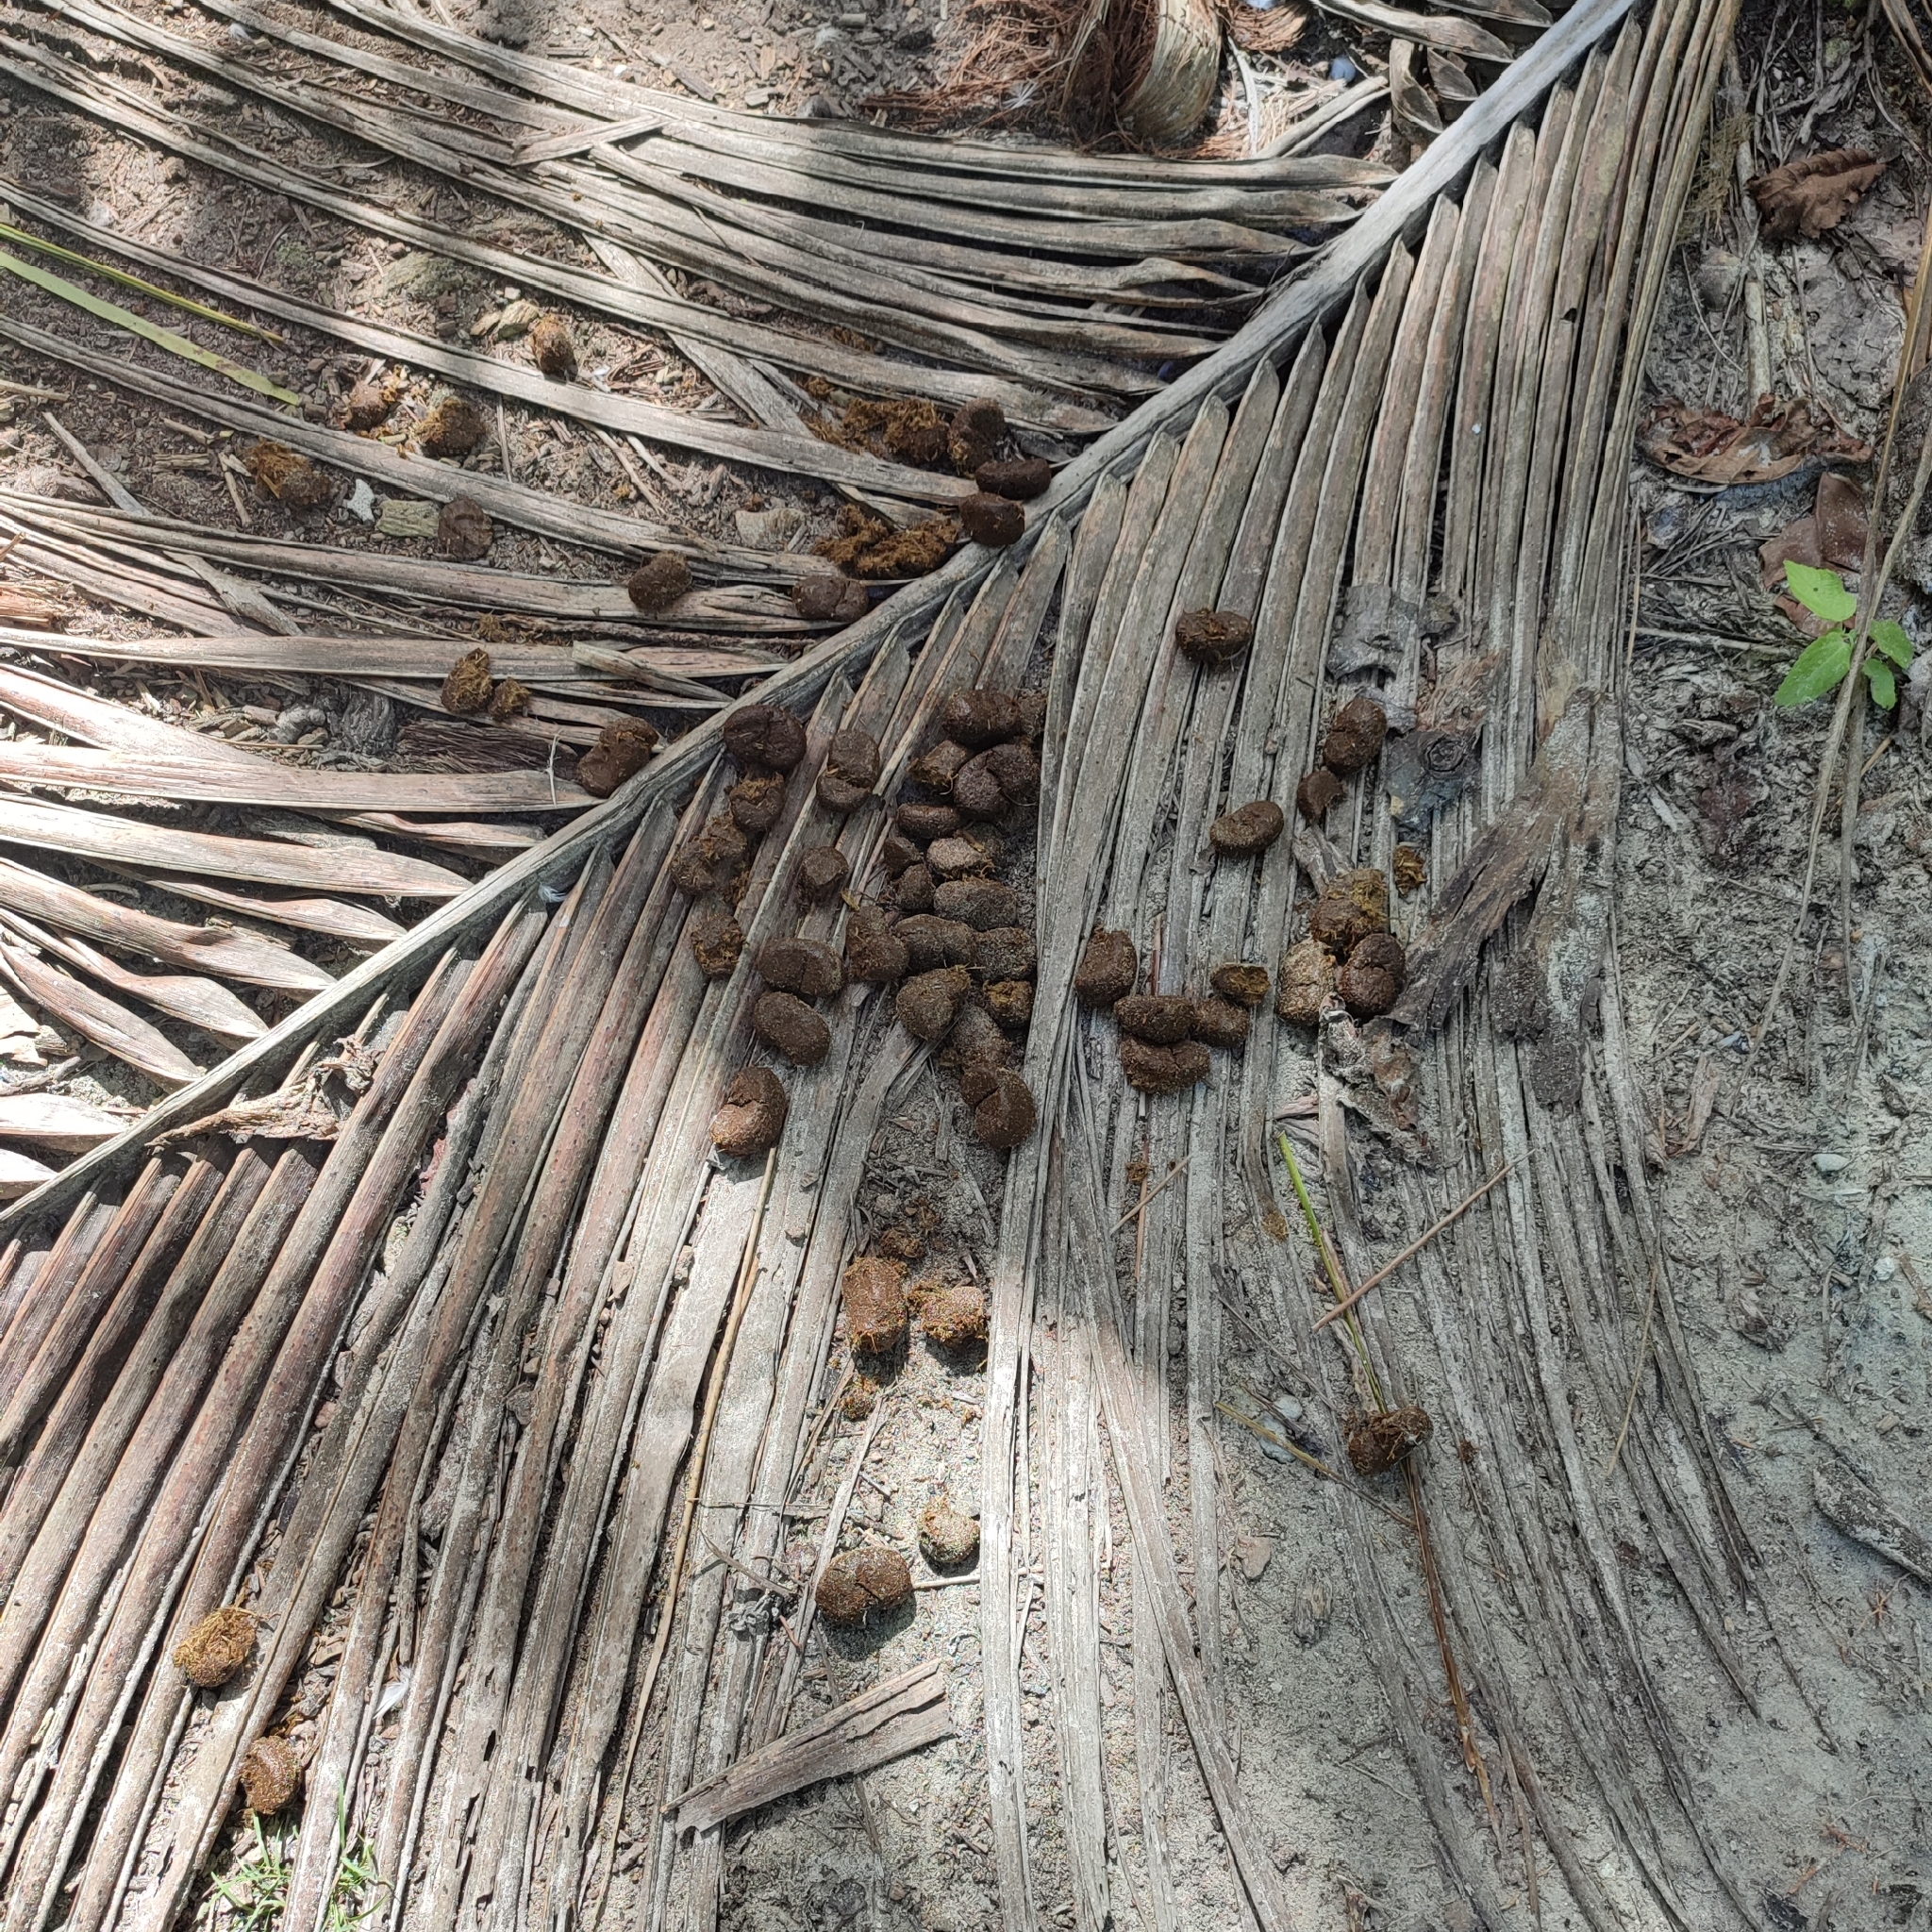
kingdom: Animalia
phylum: Chordata
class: Mammalia
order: Perissodactyla
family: Equidae
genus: Equus
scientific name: Equus asinus
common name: Ass
